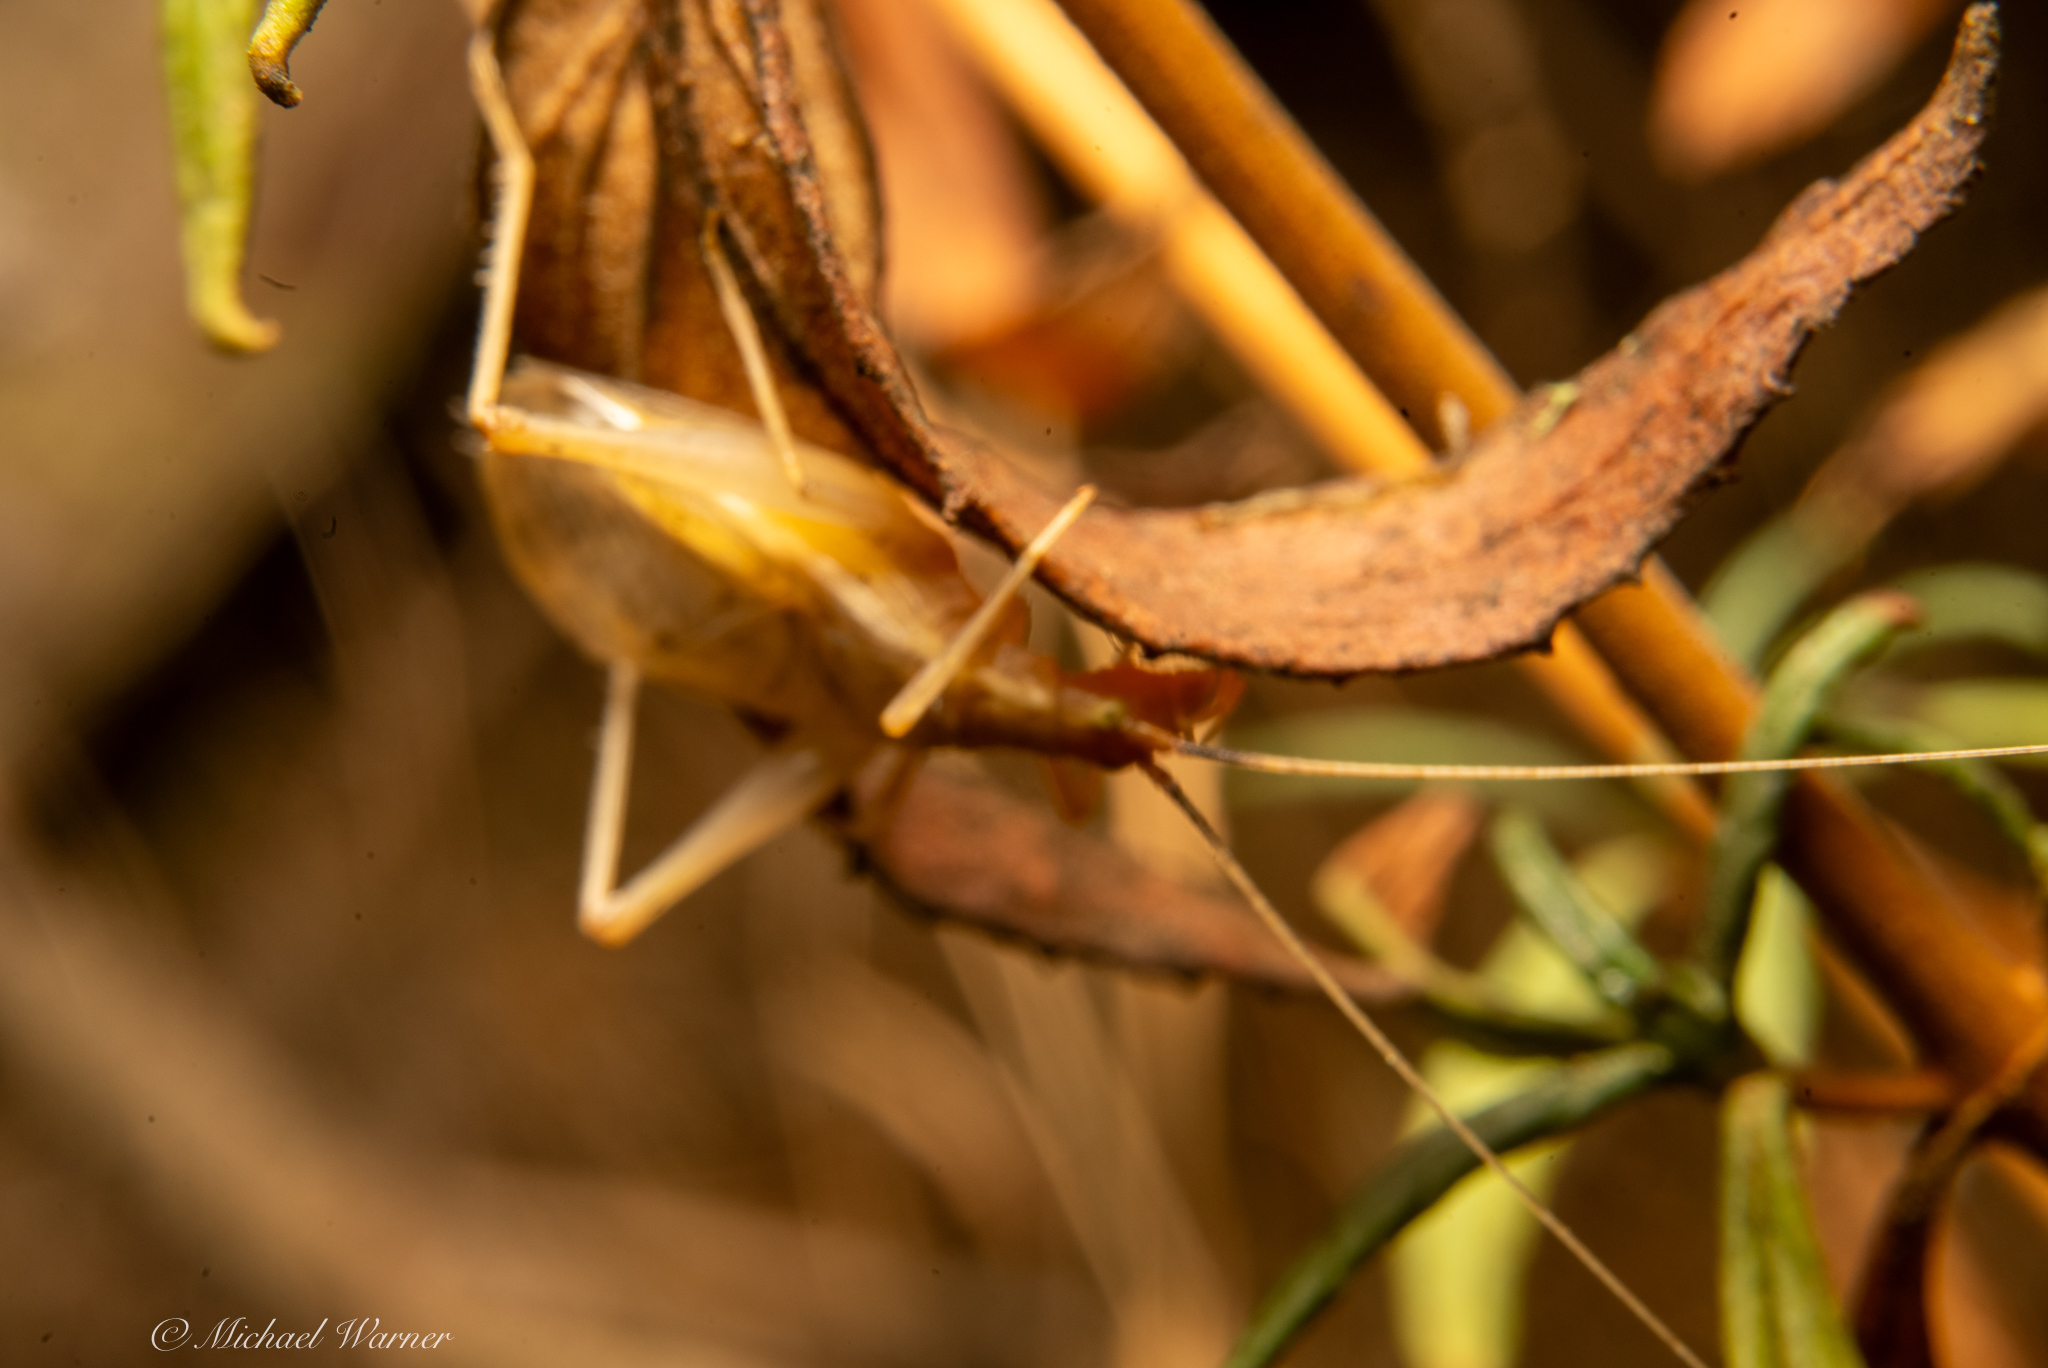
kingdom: Animalia
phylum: Arthropoda
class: Insecta
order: Orthoptera
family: Gryllidae
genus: Oecanthus
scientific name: Oecanthus californicus
